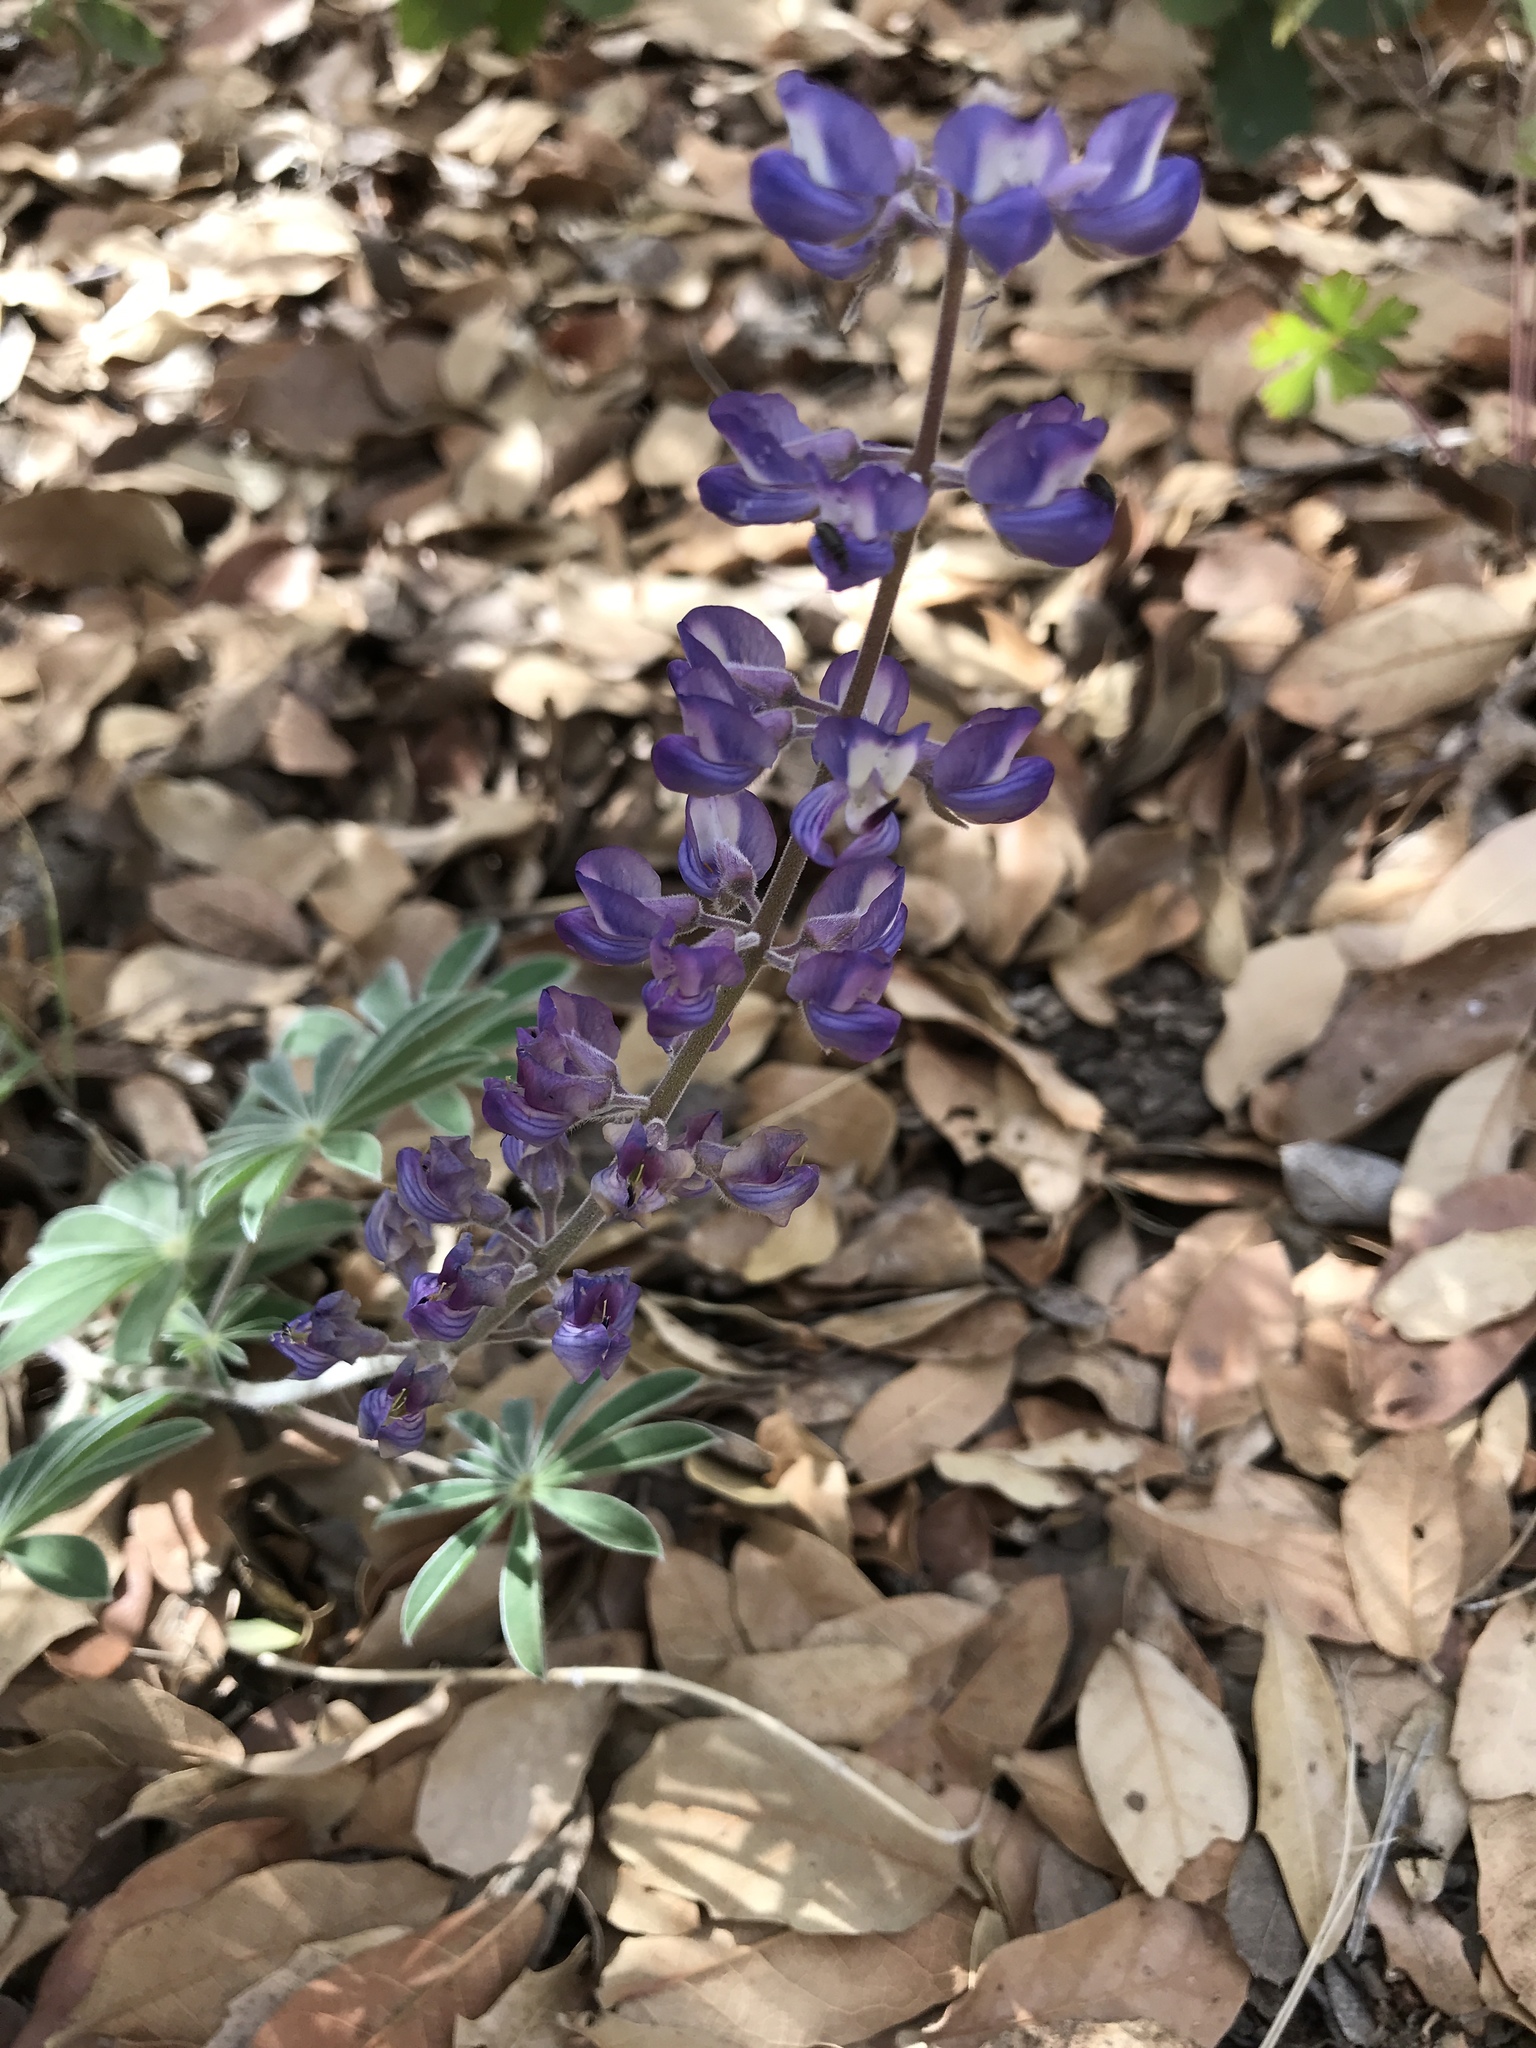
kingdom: Plantae
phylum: Tracheophyta
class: Magnoliopsida
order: Fabales
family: Fabaceae
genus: Lupinus
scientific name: Lupinus hillii
